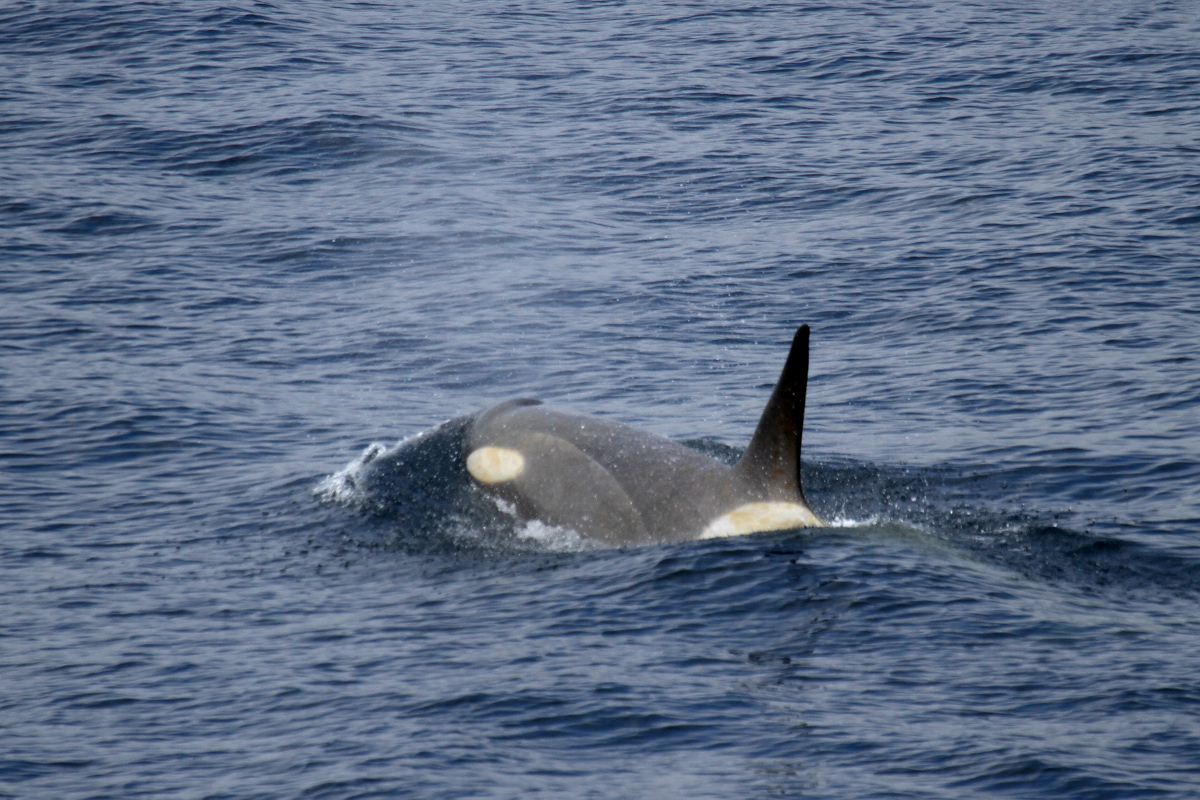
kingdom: Animalia
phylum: Chordata
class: Mammalia
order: Cetacea
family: Delphinidae
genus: Orcinus
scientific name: Orcinus orca
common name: Killer whale
